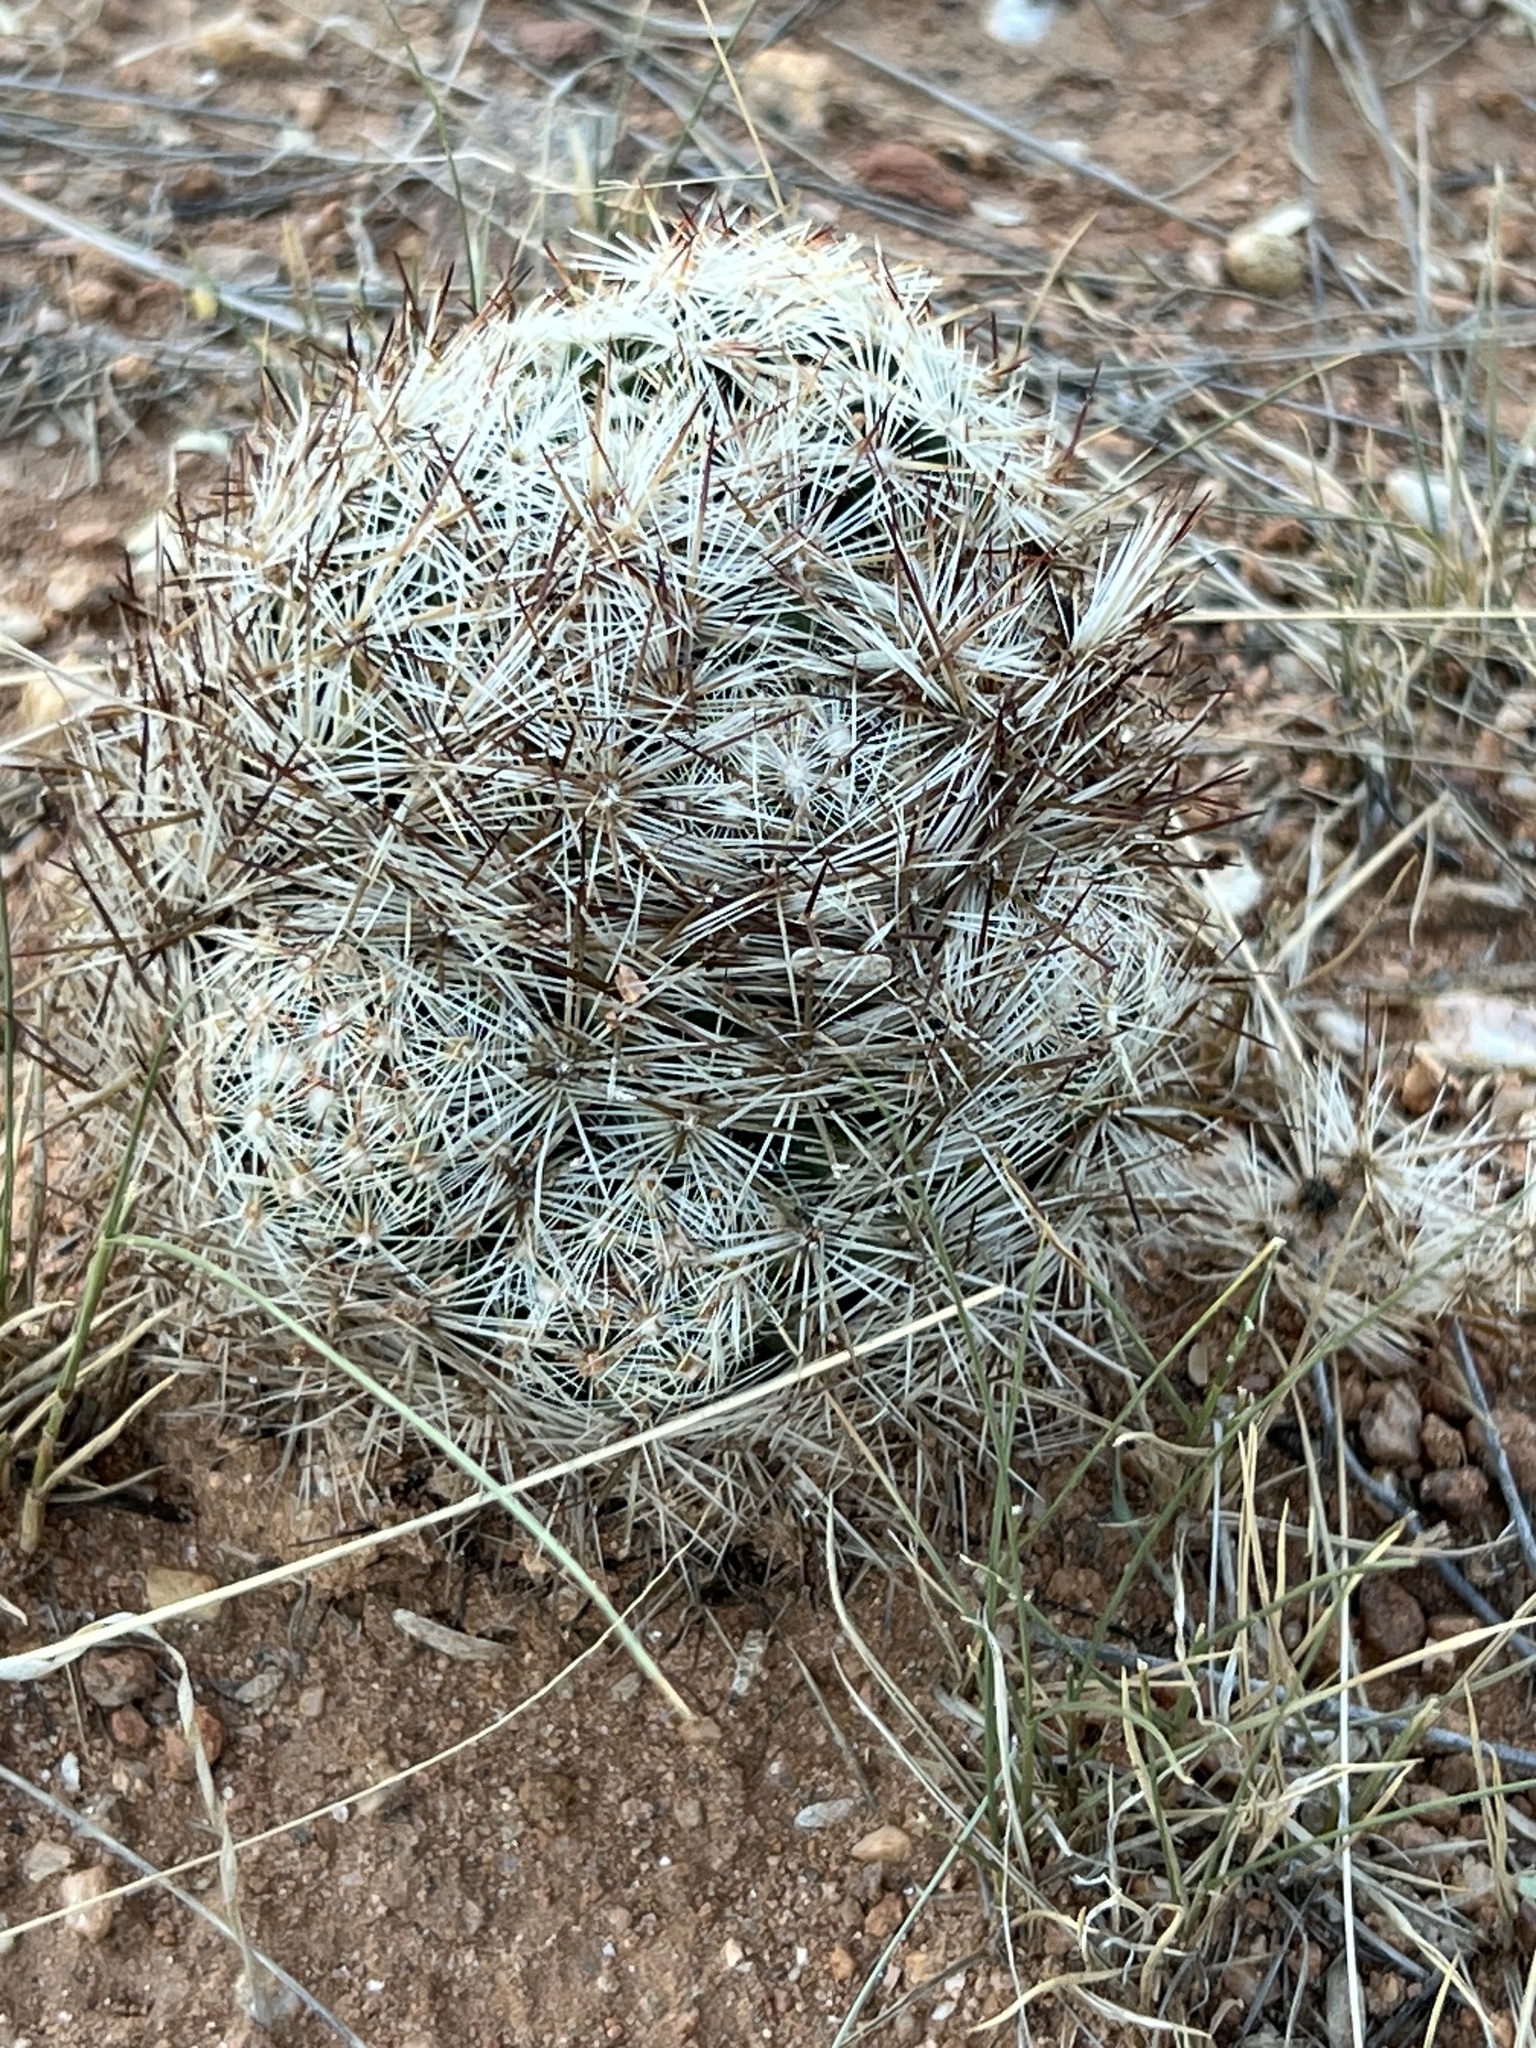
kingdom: Plantae
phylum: Tracheophyta
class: Magnoliopsida
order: Caryophyllales
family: Cactaceae
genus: Pelecyphora
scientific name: Pelecyphora vivipara
